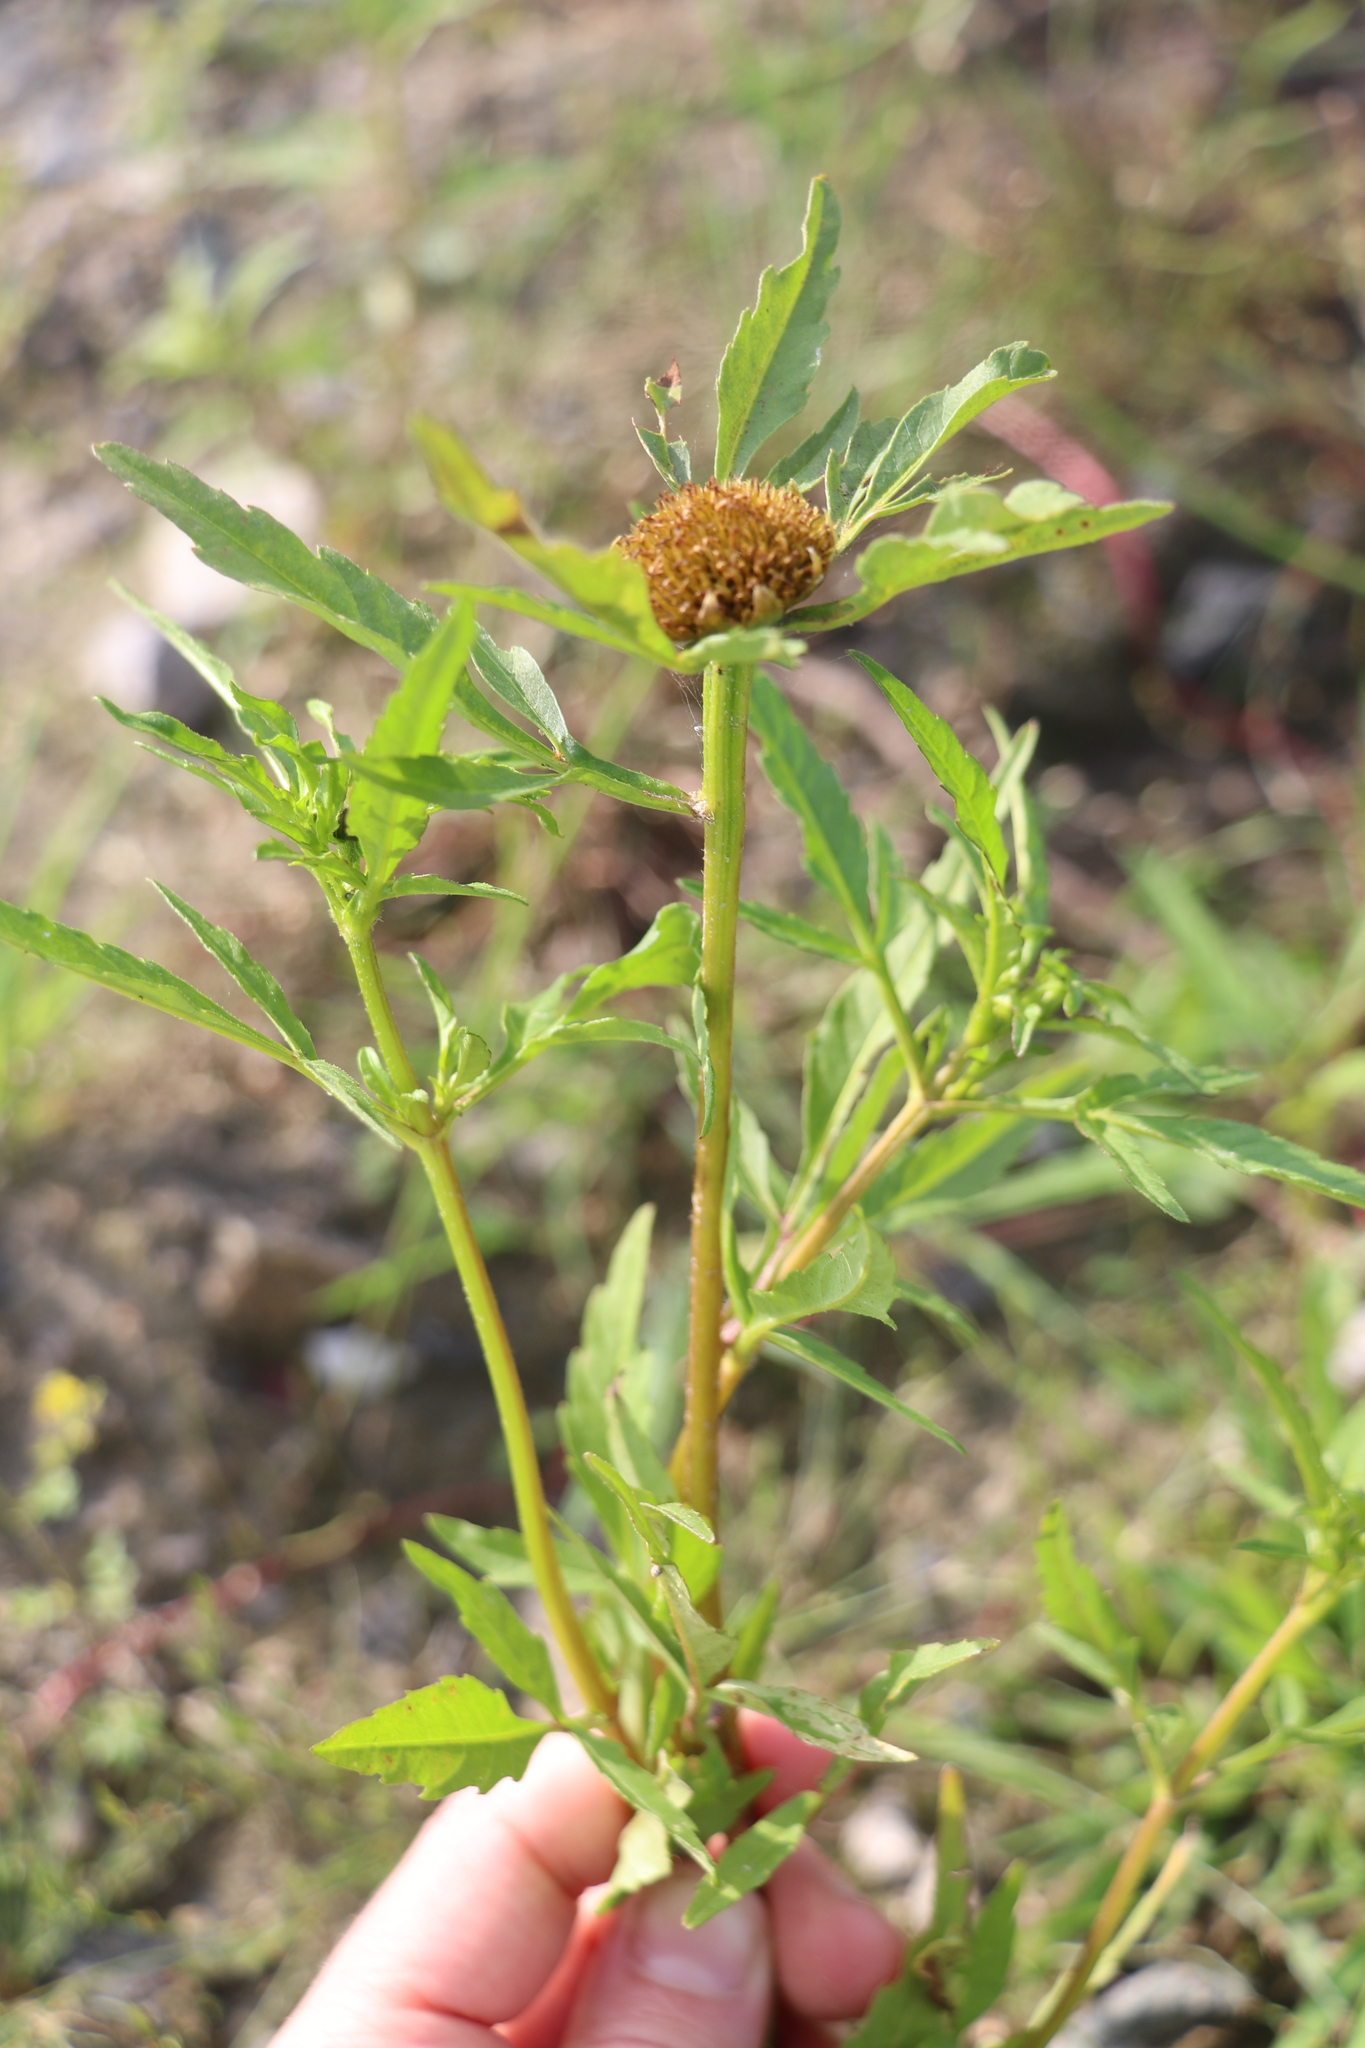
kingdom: Plantae
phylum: Tracheophyta
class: Magnoliopsida
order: Asterales
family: Asteraceae
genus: Bidens
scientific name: Bidens radiata
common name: Radiating bur-marigold
